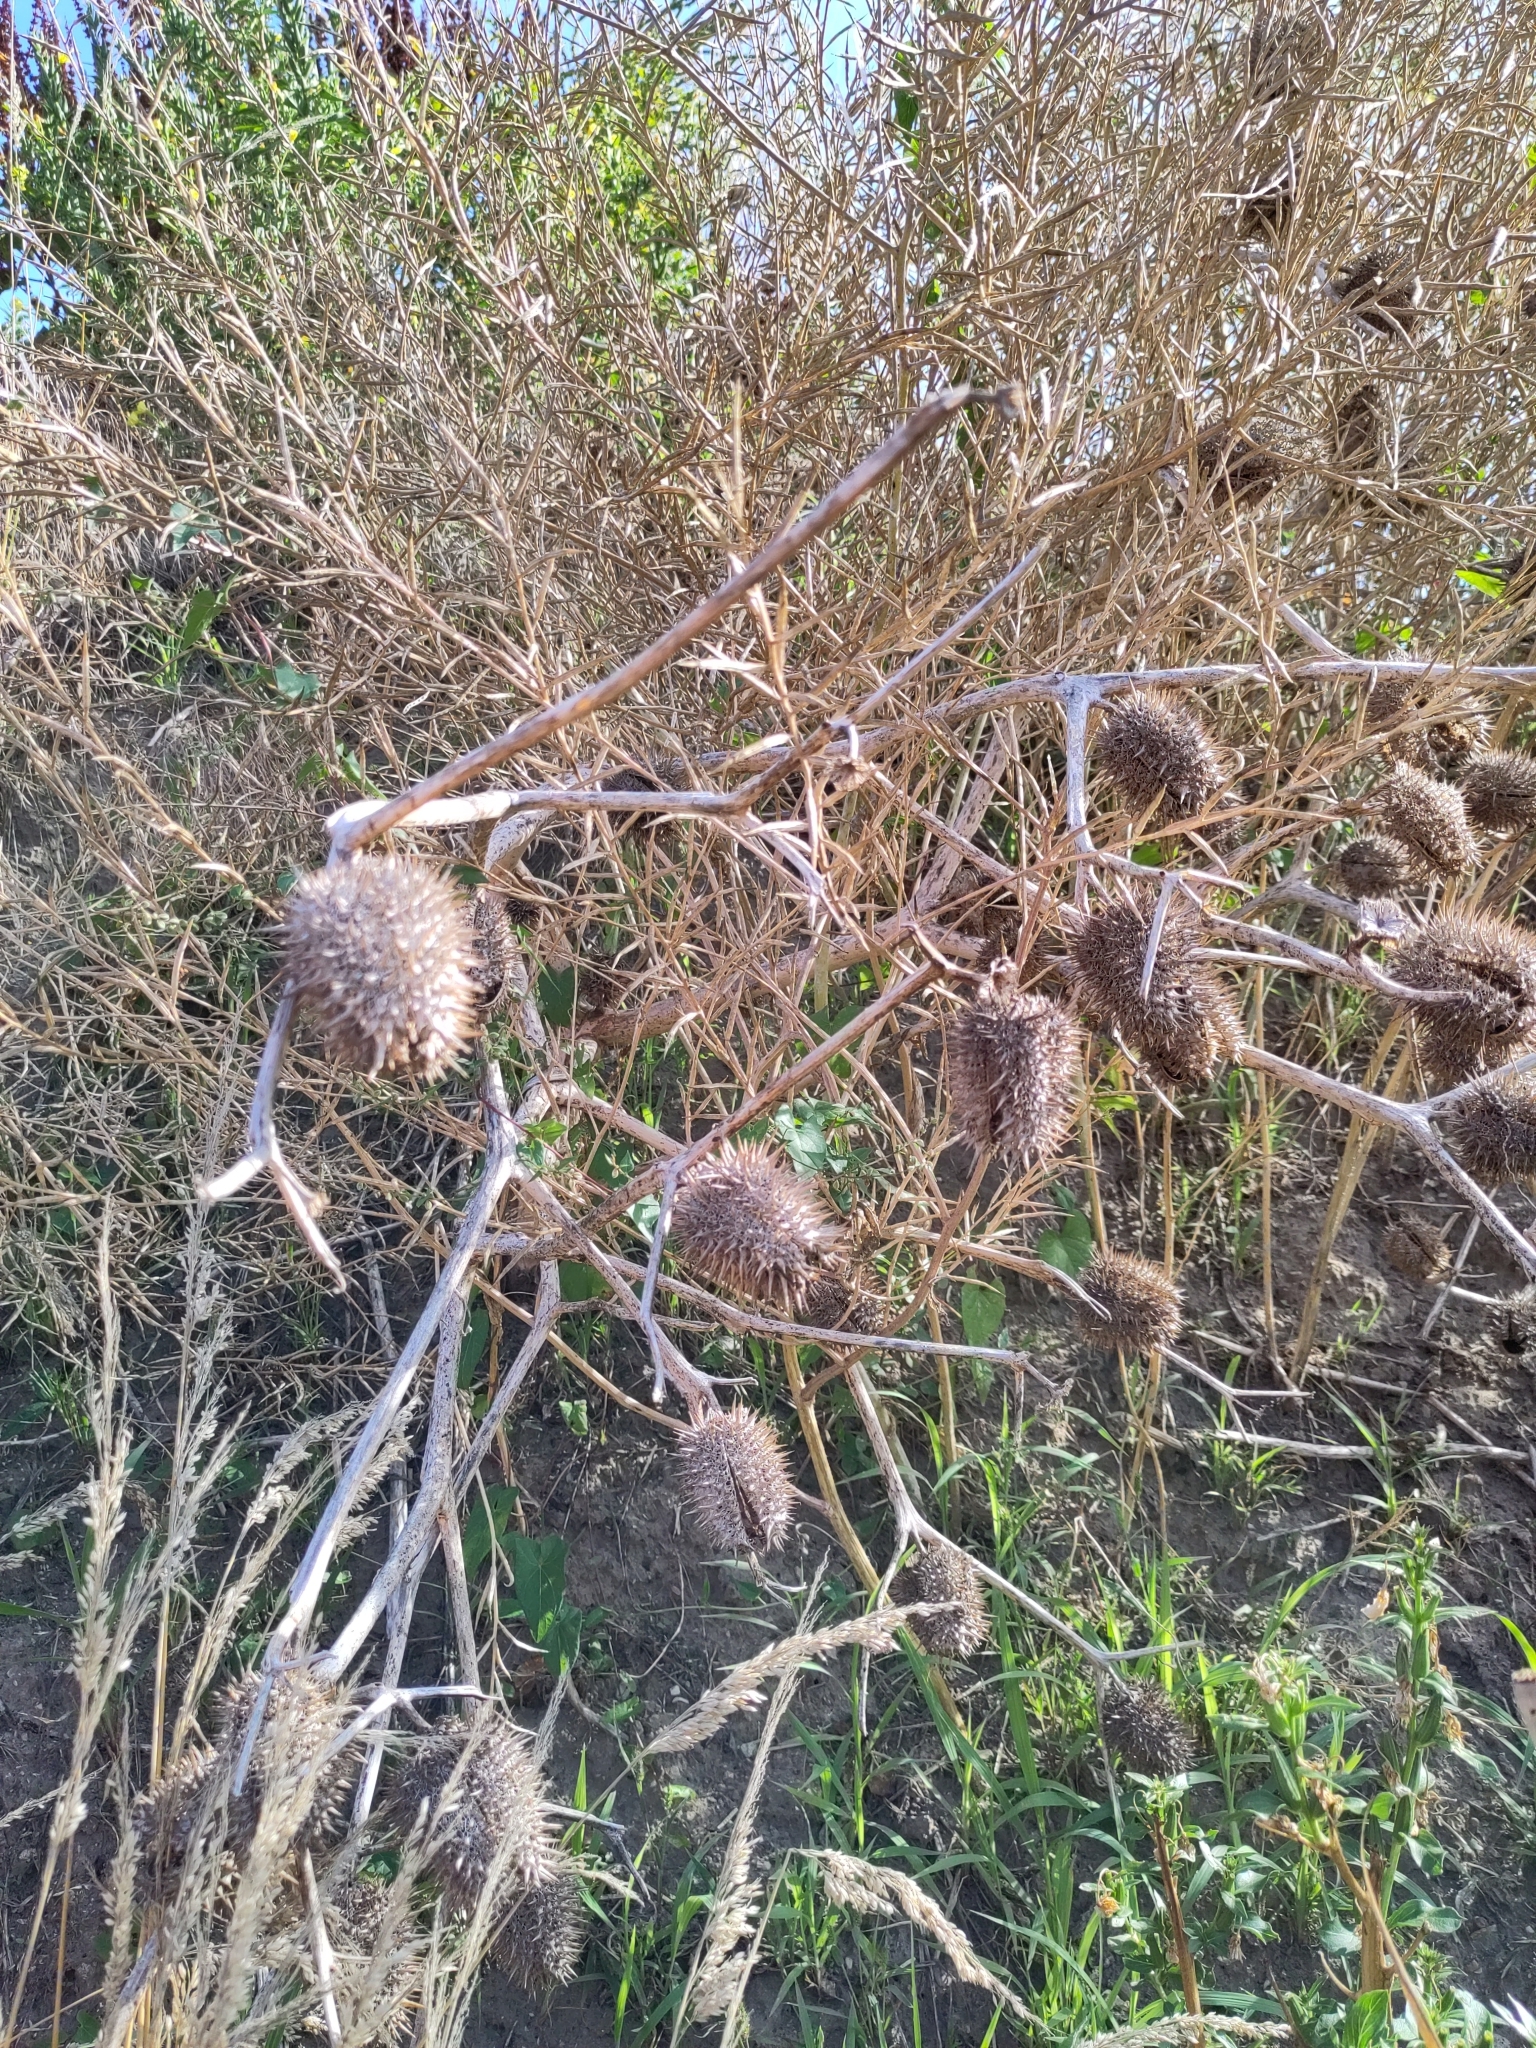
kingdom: Plantae
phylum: Tracheophyta
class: Magnoliopsida
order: Solanales
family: Solanaceae
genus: Datura
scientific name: Datura stramonium
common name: Thorn-apple
